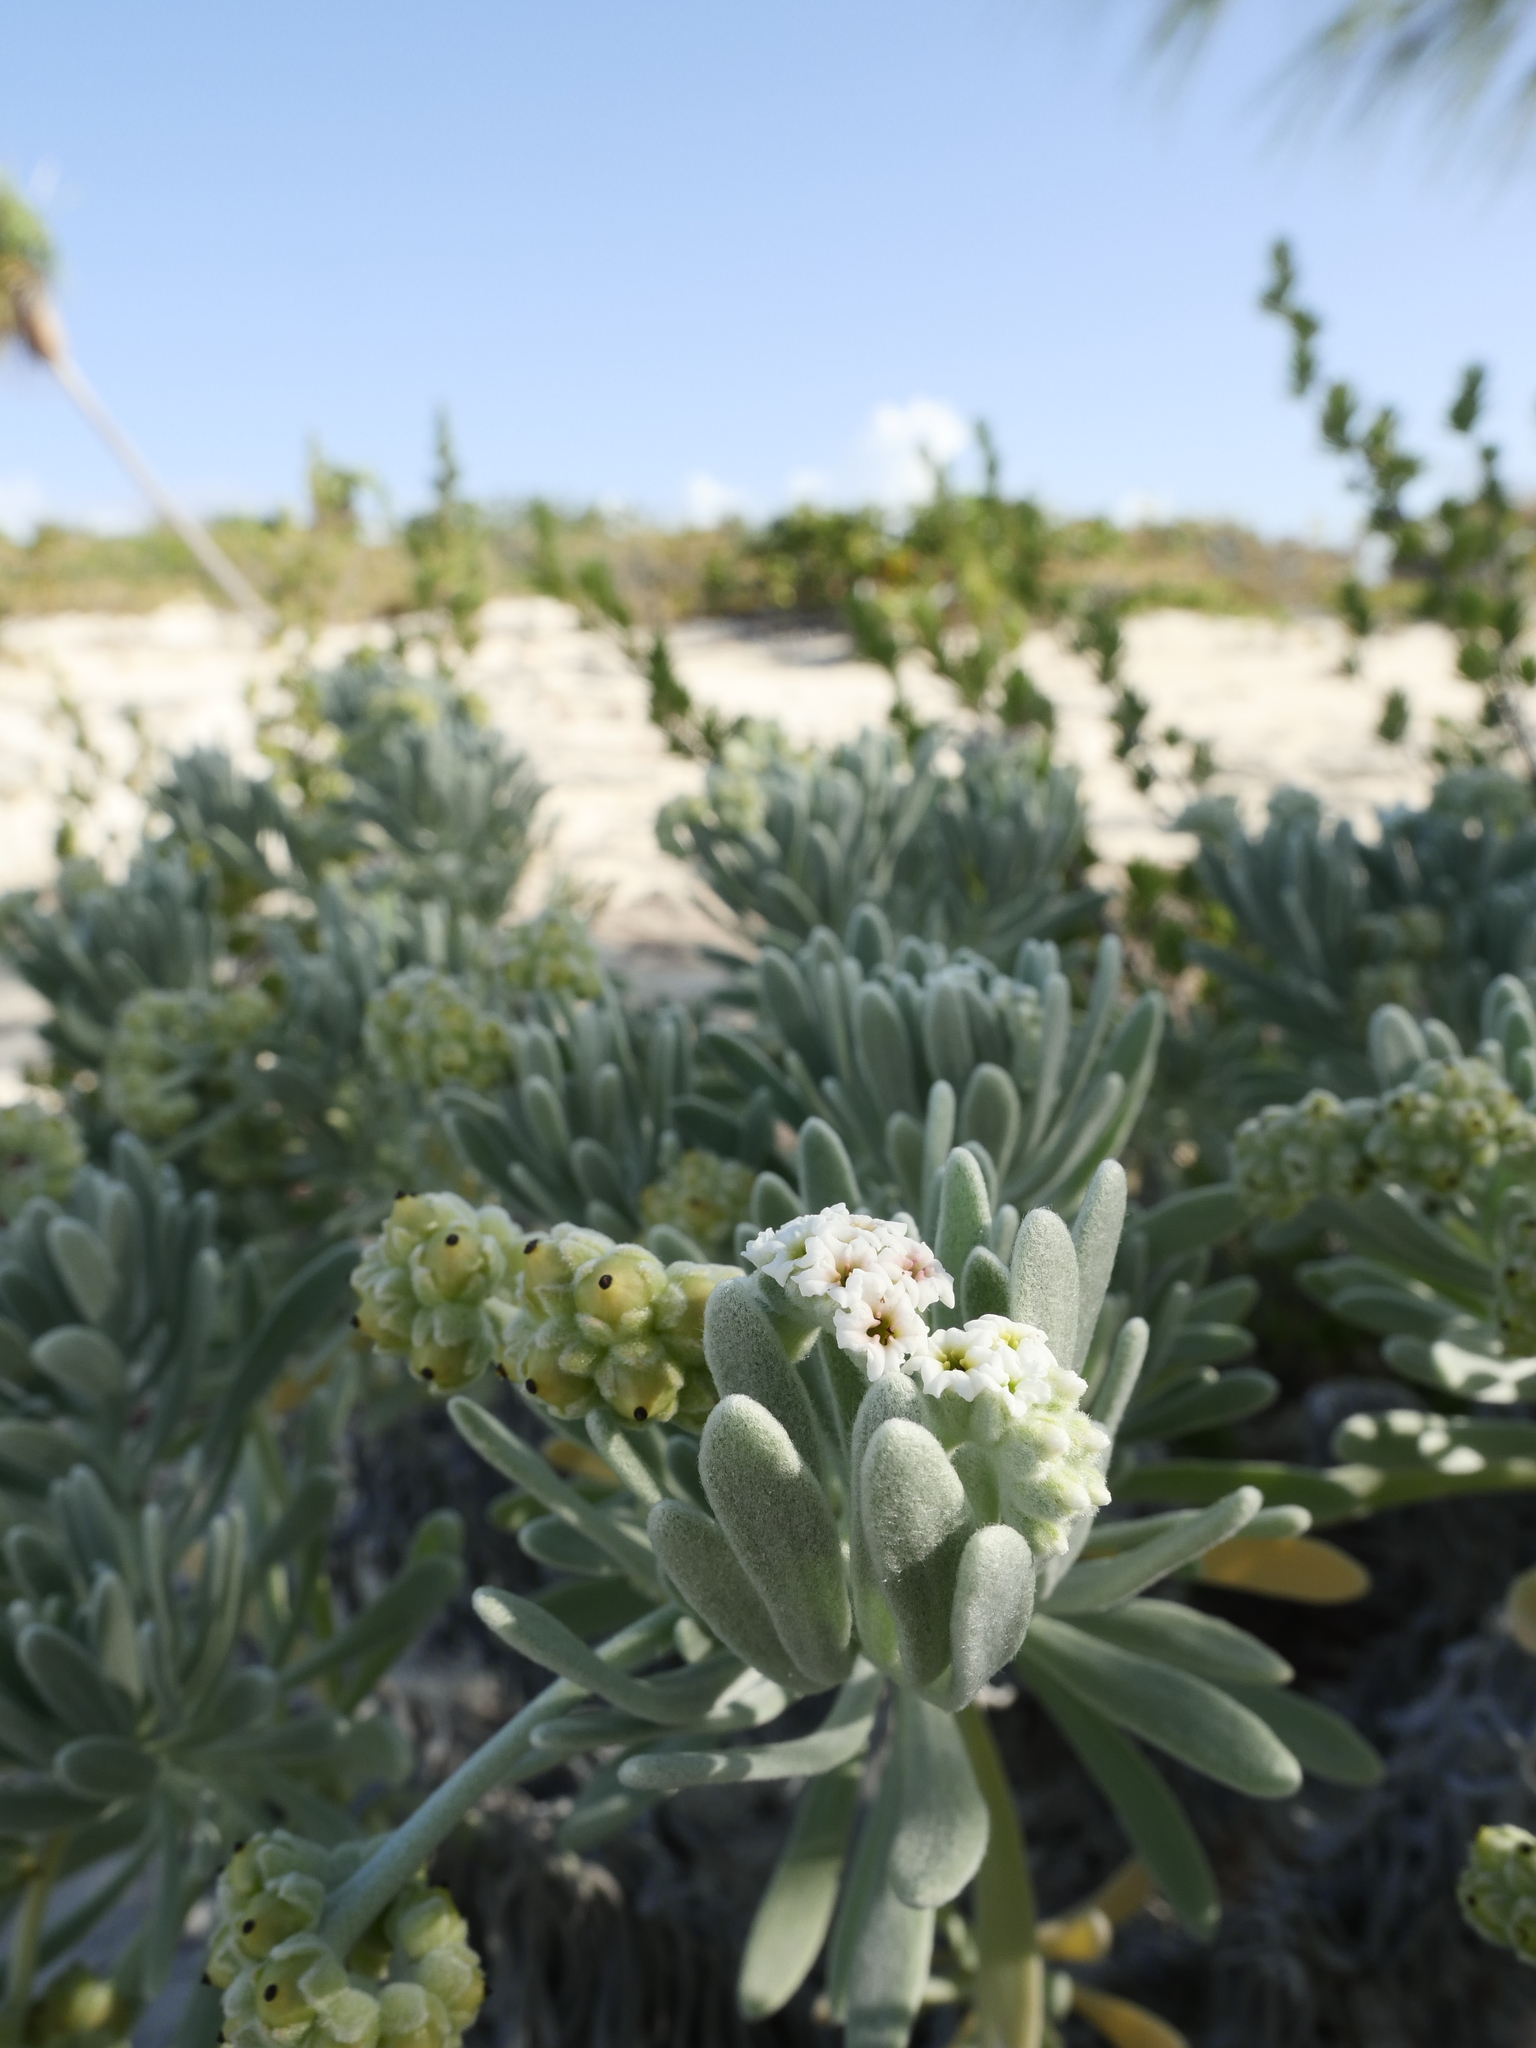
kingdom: Plantae
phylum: Tracheophyta
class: Magnoliopsida
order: Boraginales
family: Heliotropiaceae
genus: Tournefortia
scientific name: Tournefortia gnaphalodes
